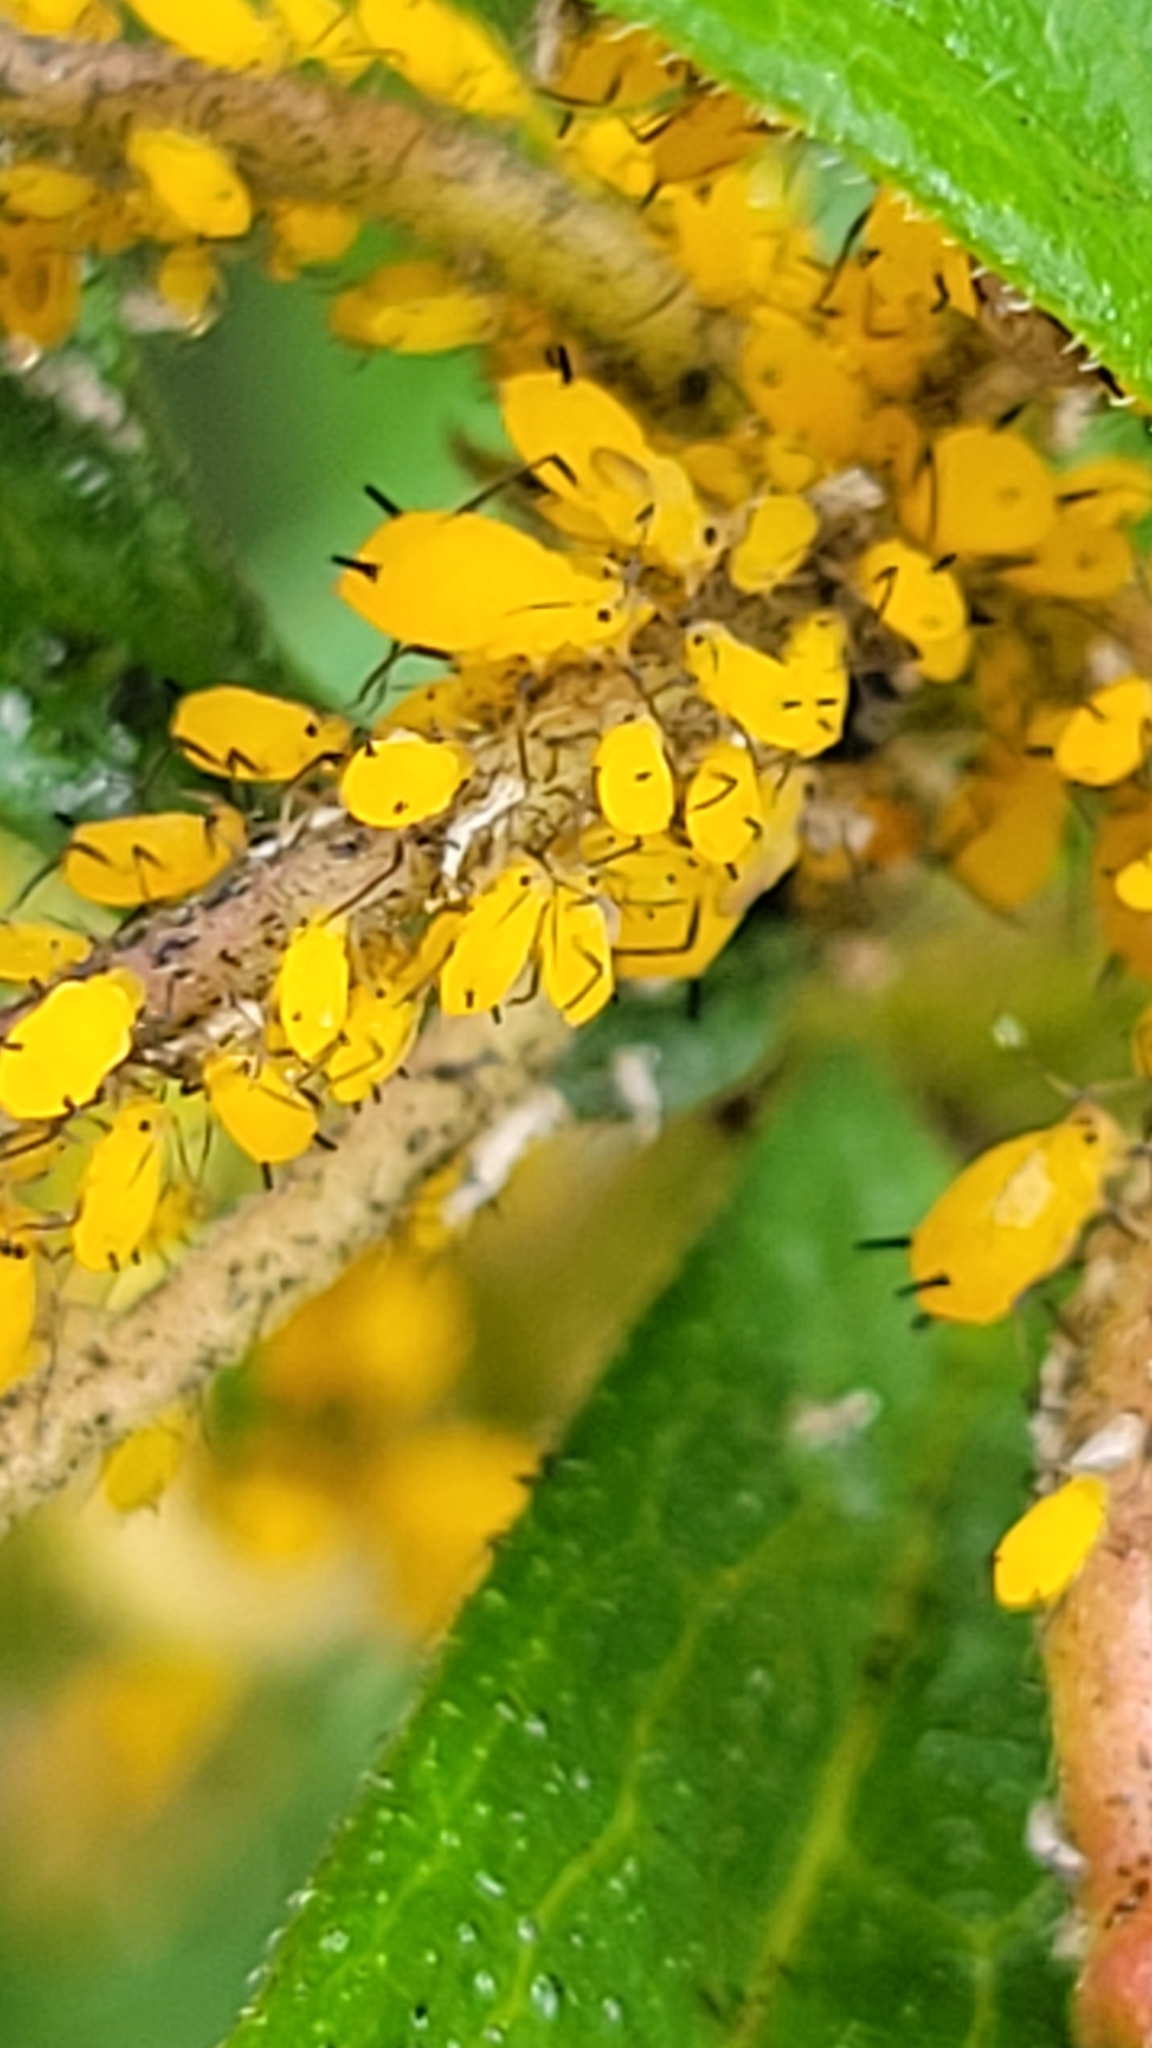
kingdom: Animalia
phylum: Arthropoda
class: Insecta
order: Hemiptera
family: Aphididae
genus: Aphis
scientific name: Aphis nerii
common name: Oleander aphid
